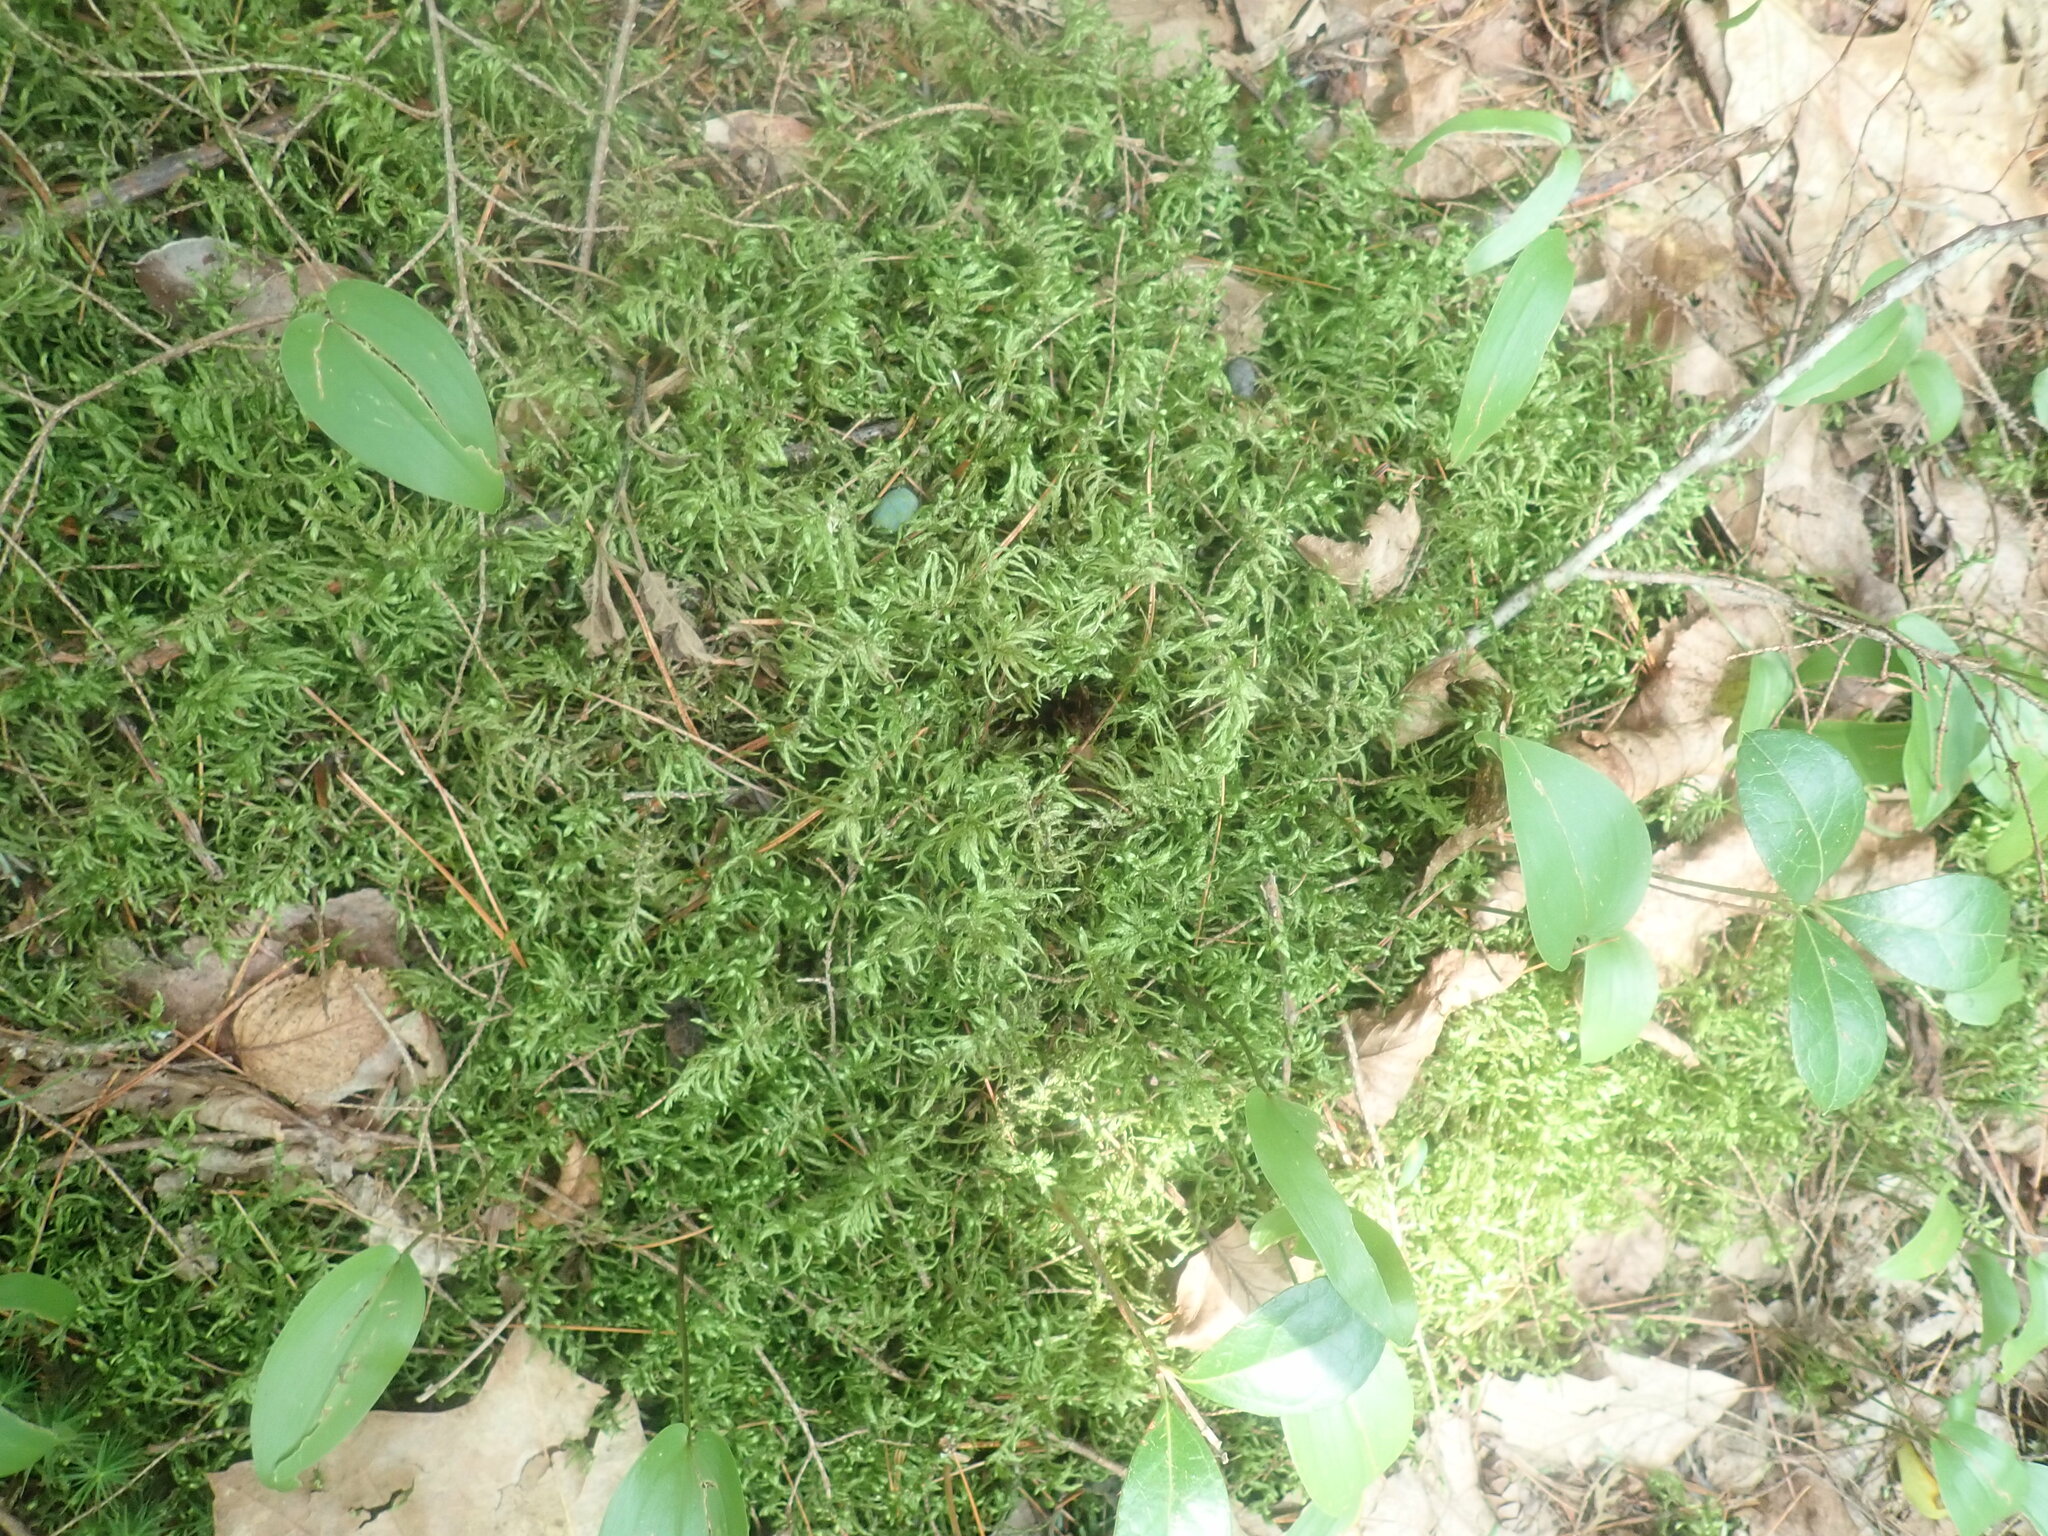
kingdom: Plantae
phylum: Bryophyta
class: Bryopsida
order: Hypnales
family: Hylocomiaceae
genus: Pleurozium
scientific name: Pleurozium schreberi
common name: Red-stemmed feather moss
